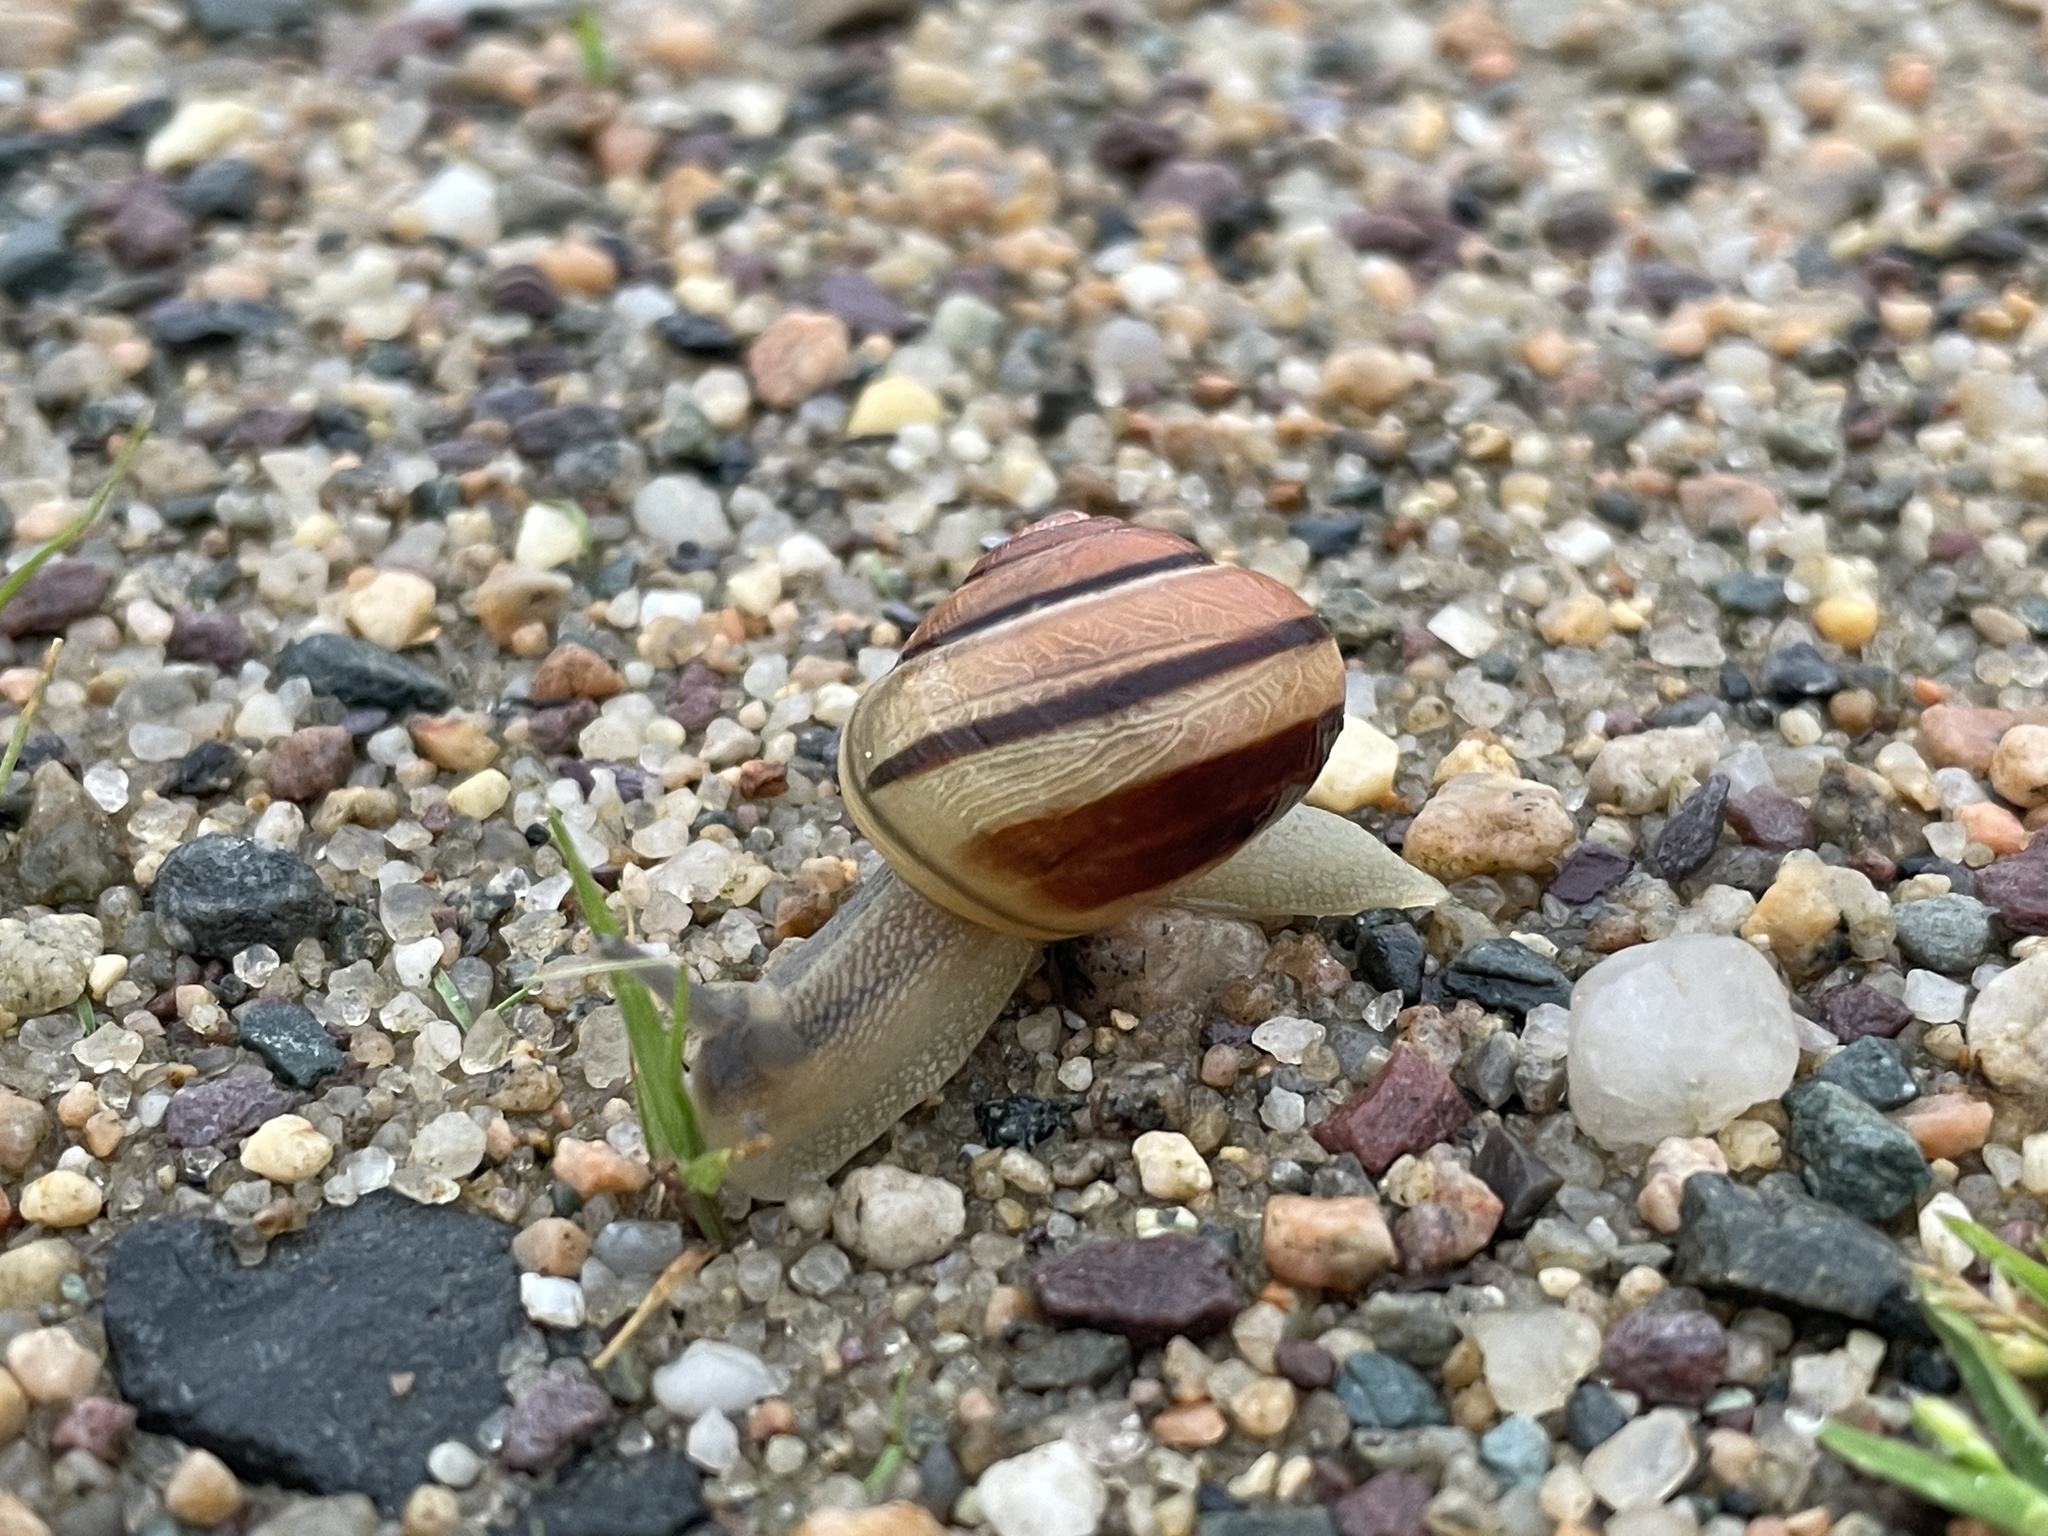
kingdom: Animalia
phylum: Mollusca
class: Gastropoda
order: Stylommatophora
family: Helicidae
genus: Cepaea
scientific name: Cepaea nemoralis
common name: Grovesnail
